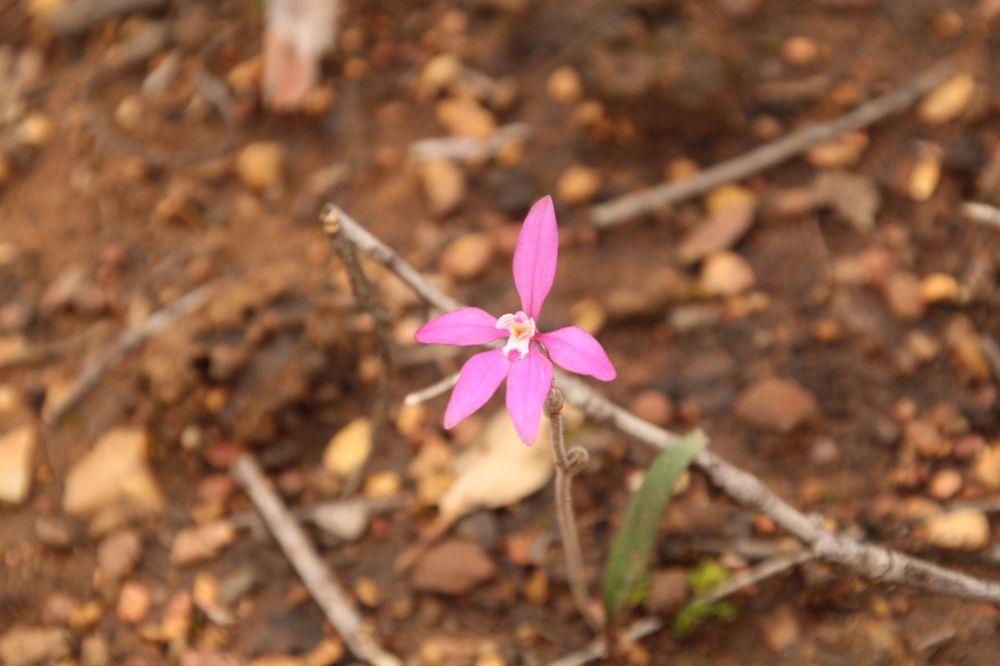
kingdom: Plantae
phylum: Tracheophyta
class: Liliopsida
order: Asparagales
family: Orchidaceae
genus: Caladenia
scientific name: Caladenia reptans
